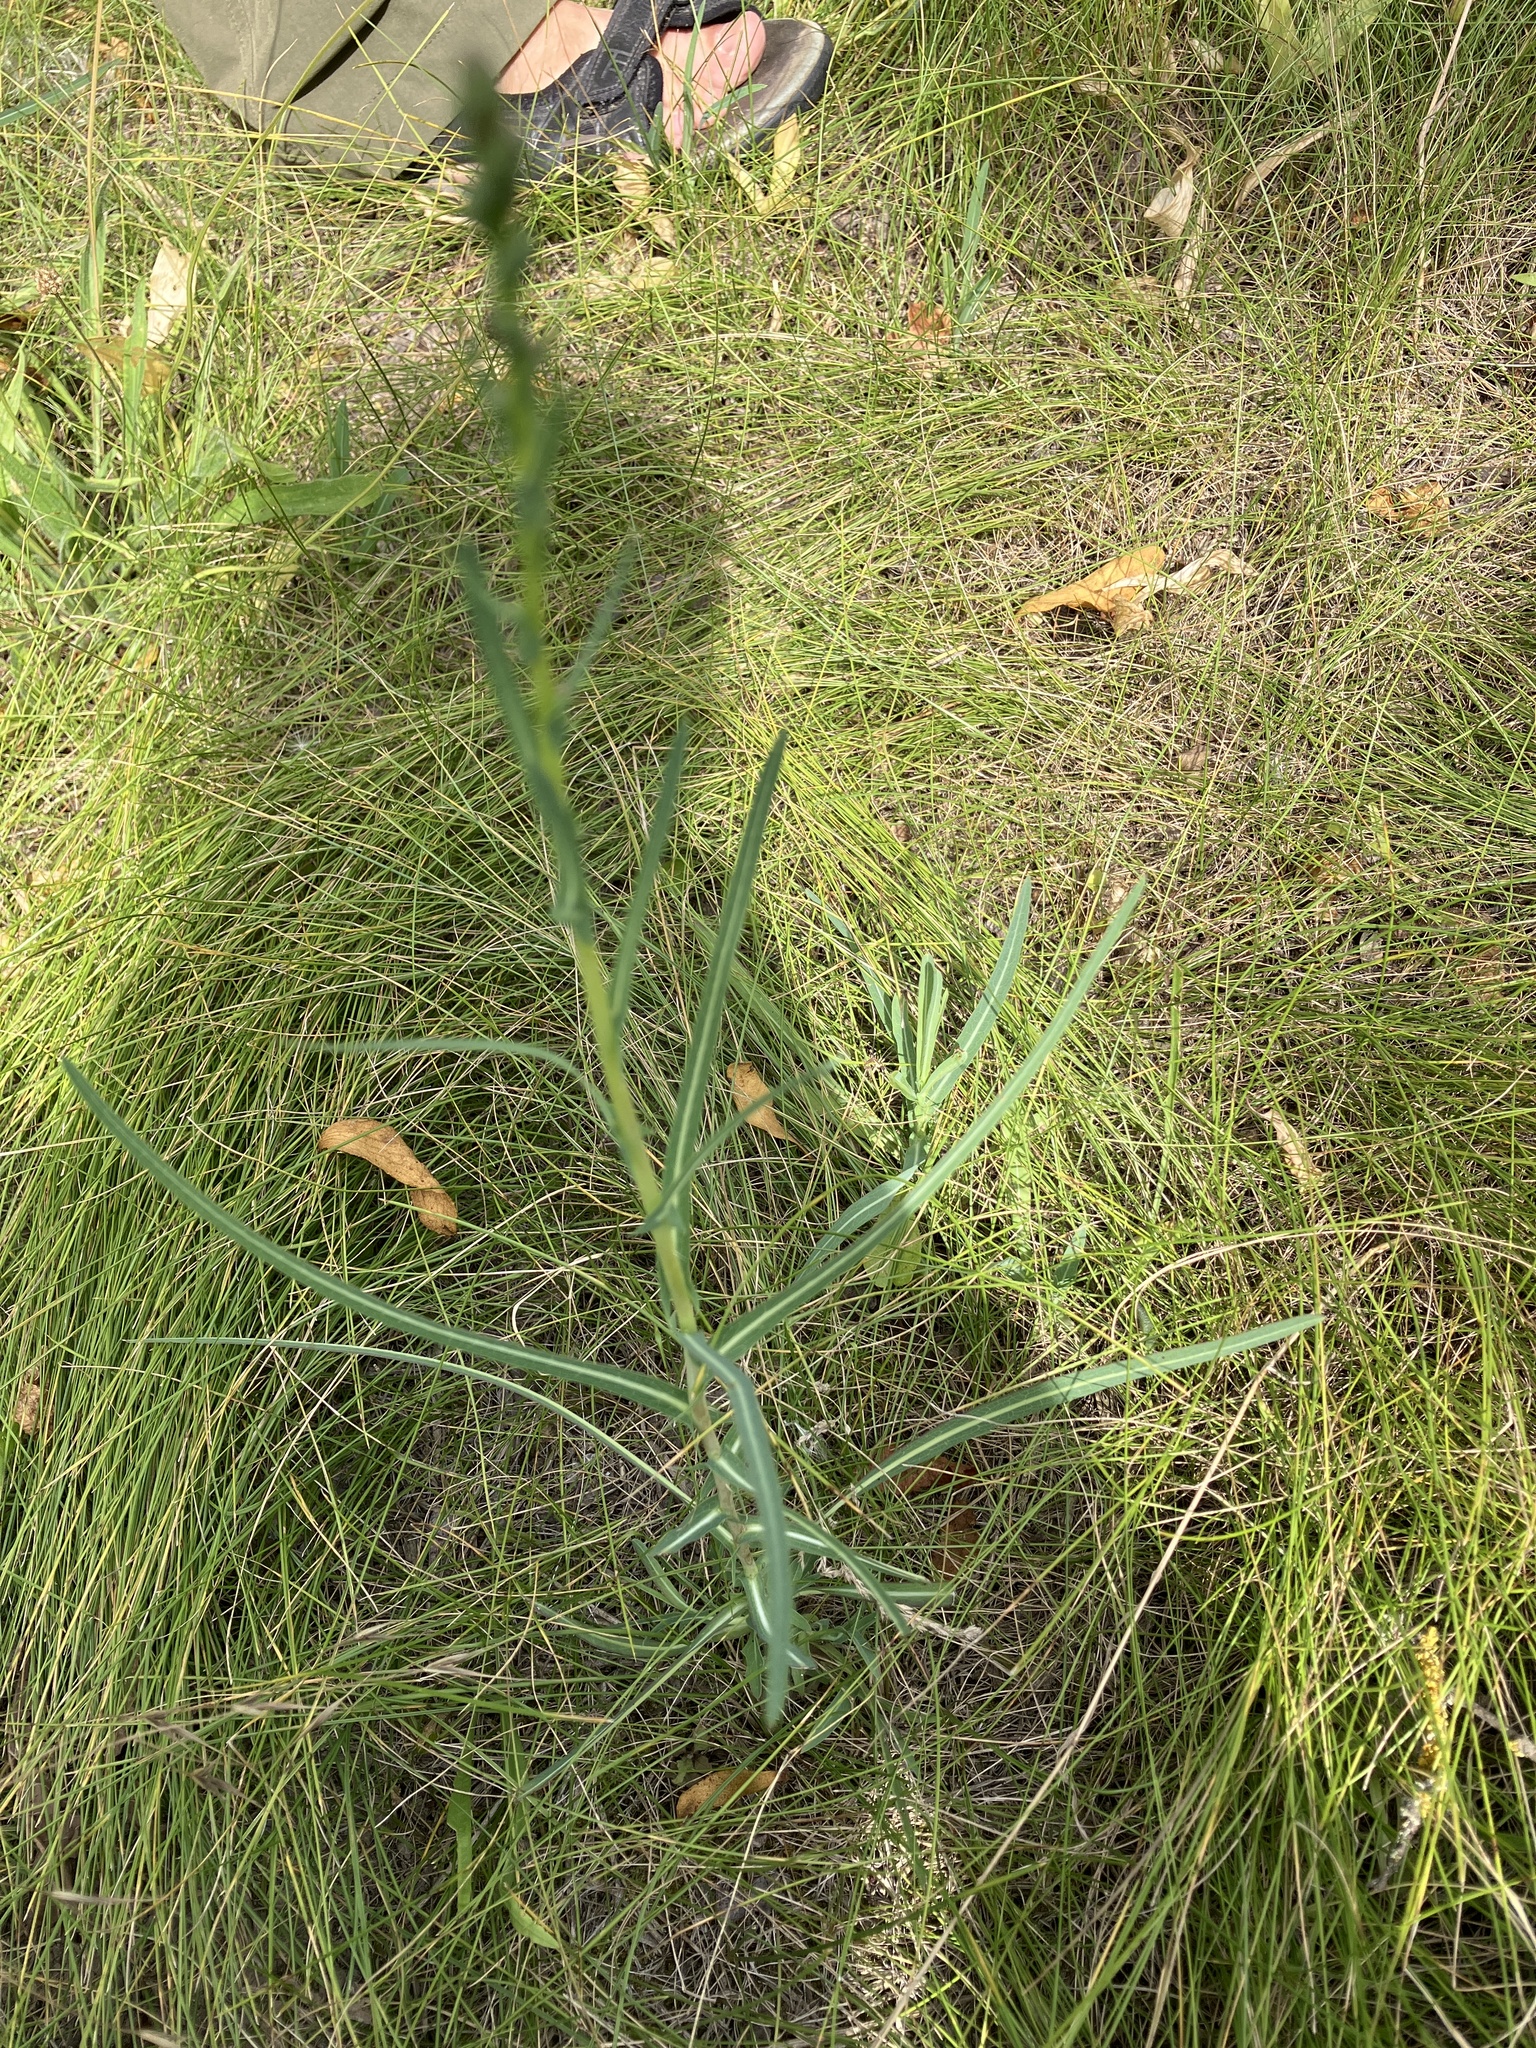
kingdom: Plantae
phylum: Tracheophyta
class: Magnoliopsida
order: Asterales
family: Asteraceae
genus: Lactuca
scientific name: Lactuca saligna
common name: Wild lettuce
